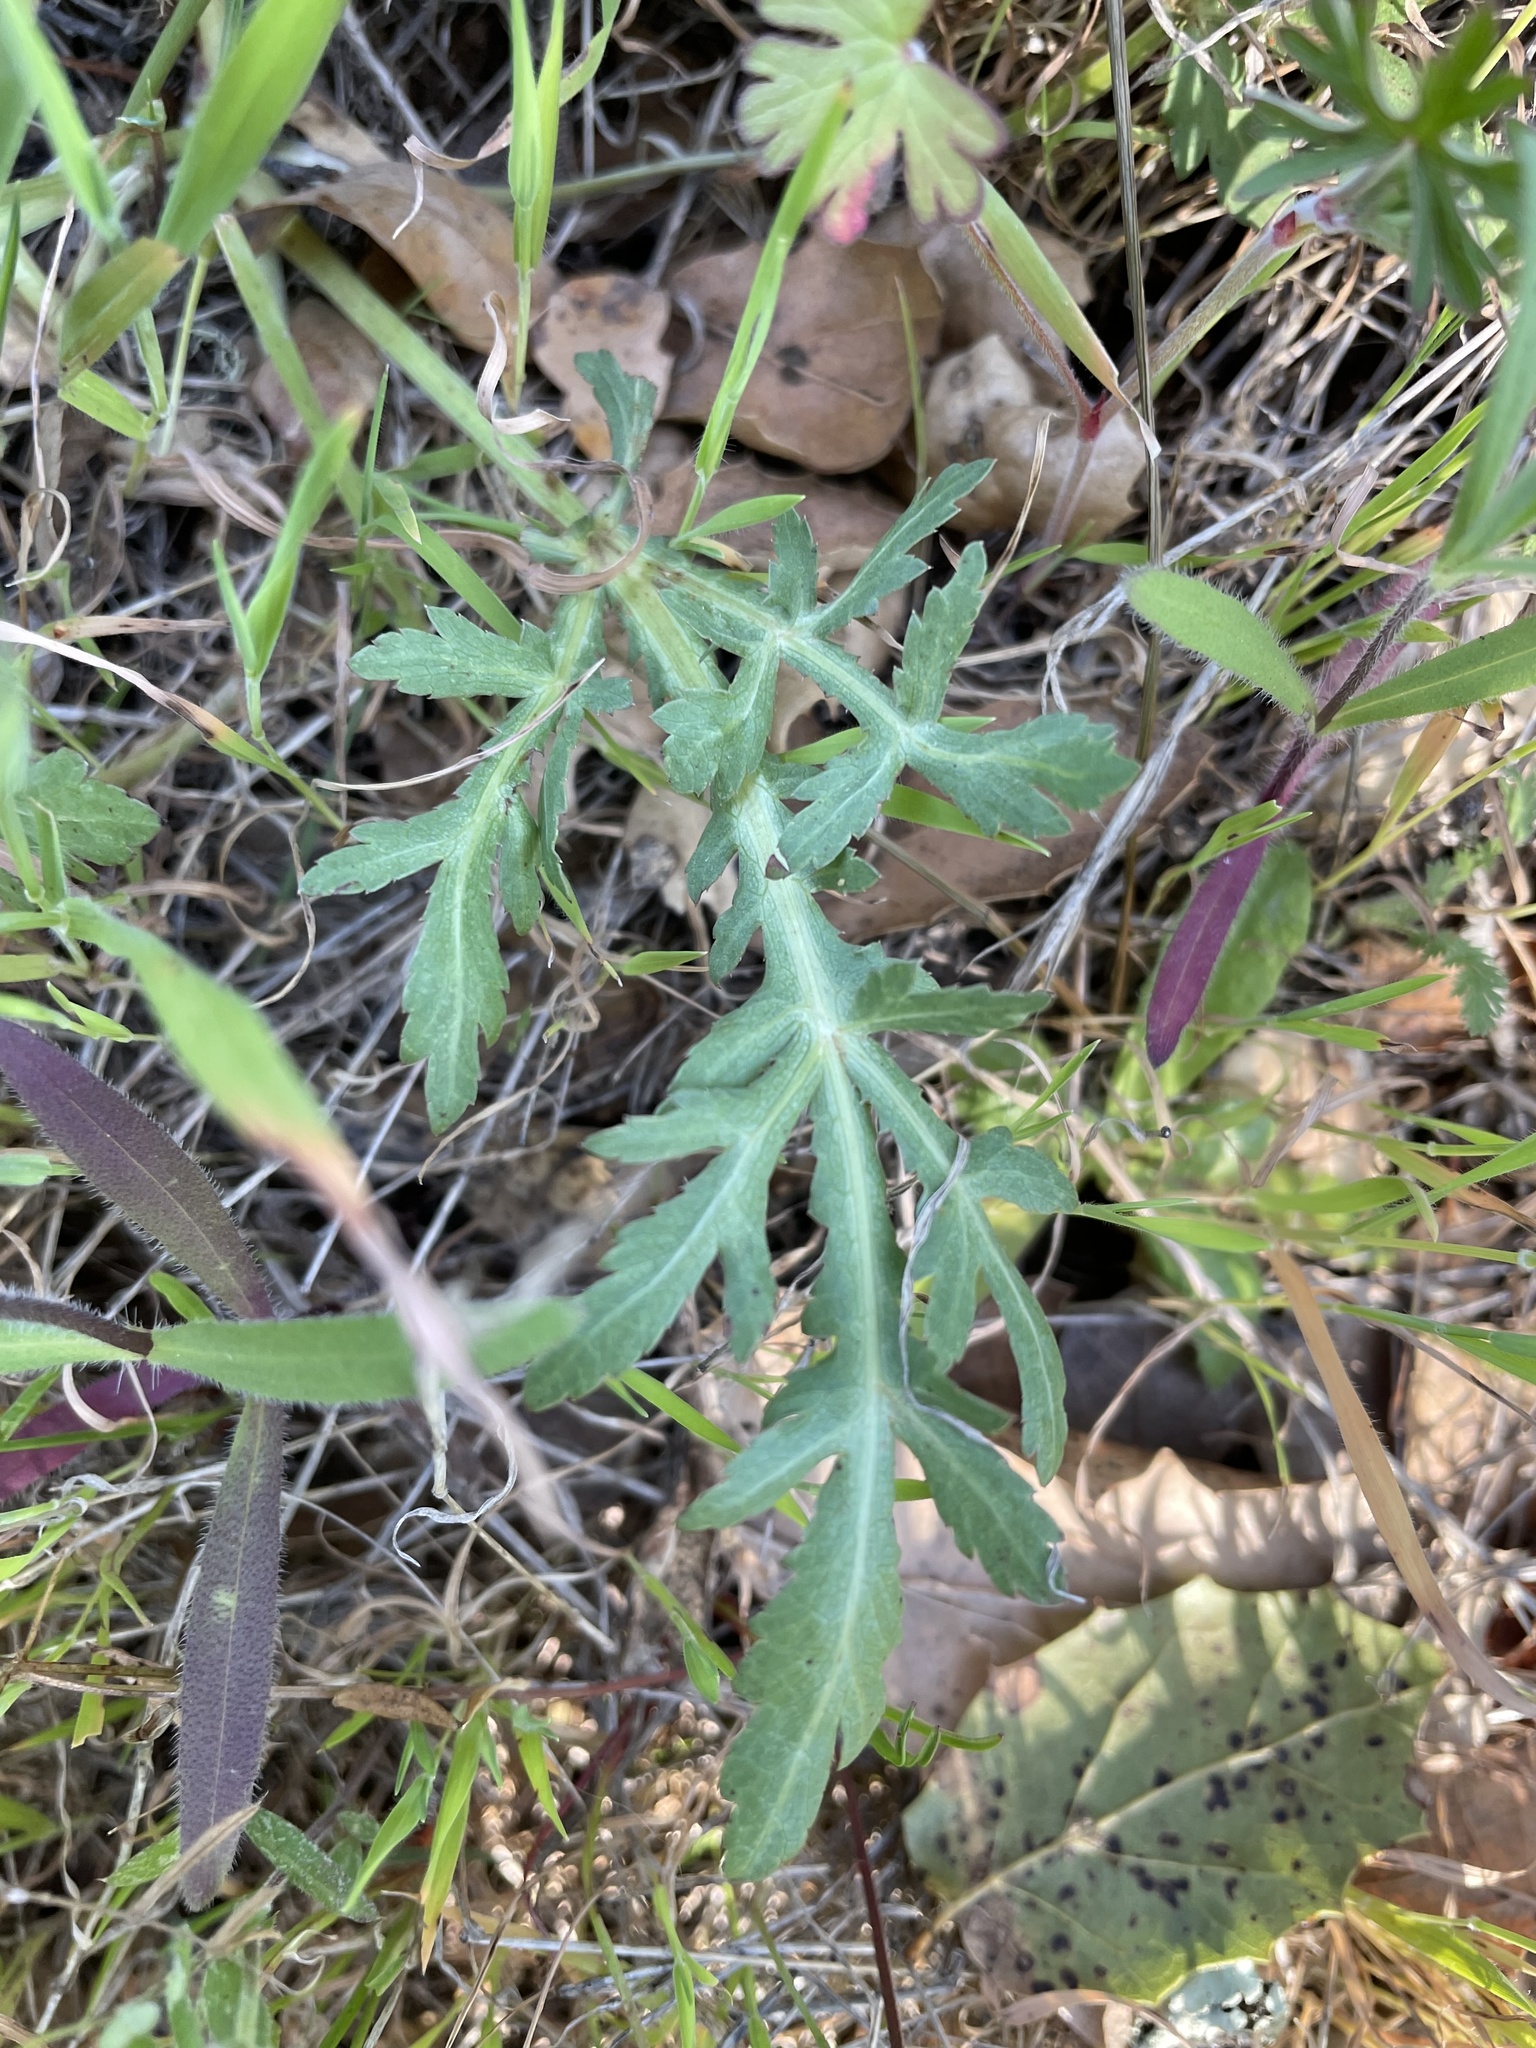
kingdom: Plantae
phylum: Tracheophyta
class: Magnoliopsida
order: Apiales
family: Apiaceae
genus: Sanicula
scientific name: Sanicula bipinnatifida
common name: Shoe-buttons
